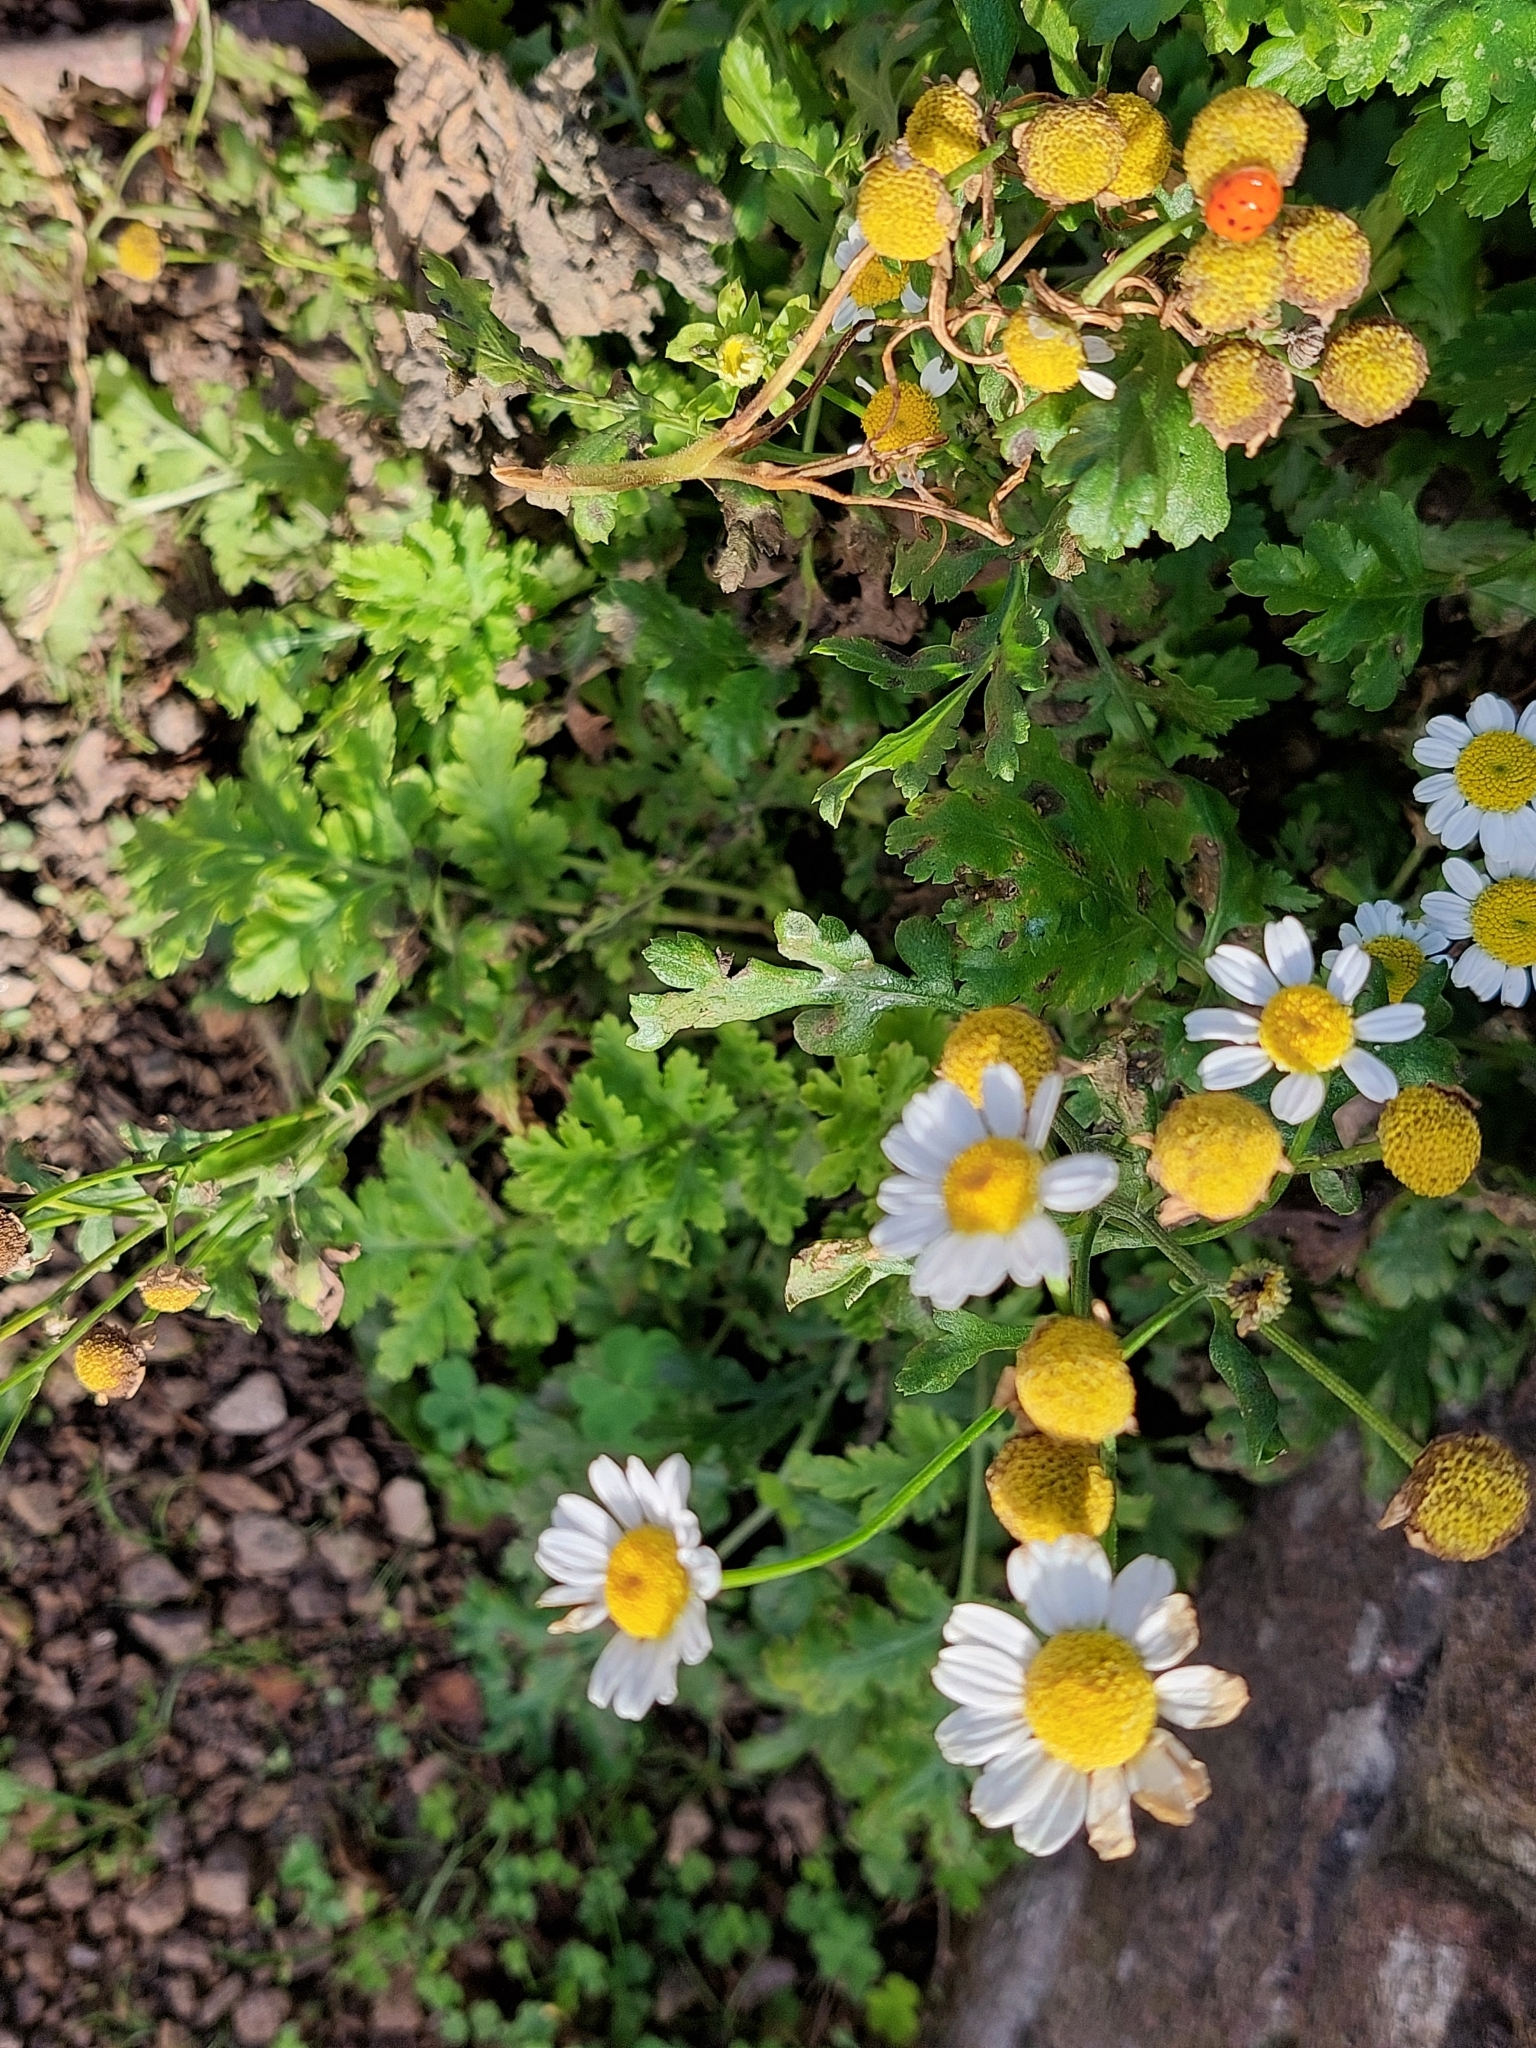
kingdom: Plantae
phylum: Tracheophyta
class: Magnoliopsida
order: Asterales
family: Asteraceae
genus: Tanacetum
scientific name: Tanacetum parthenium
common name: Feverfew
